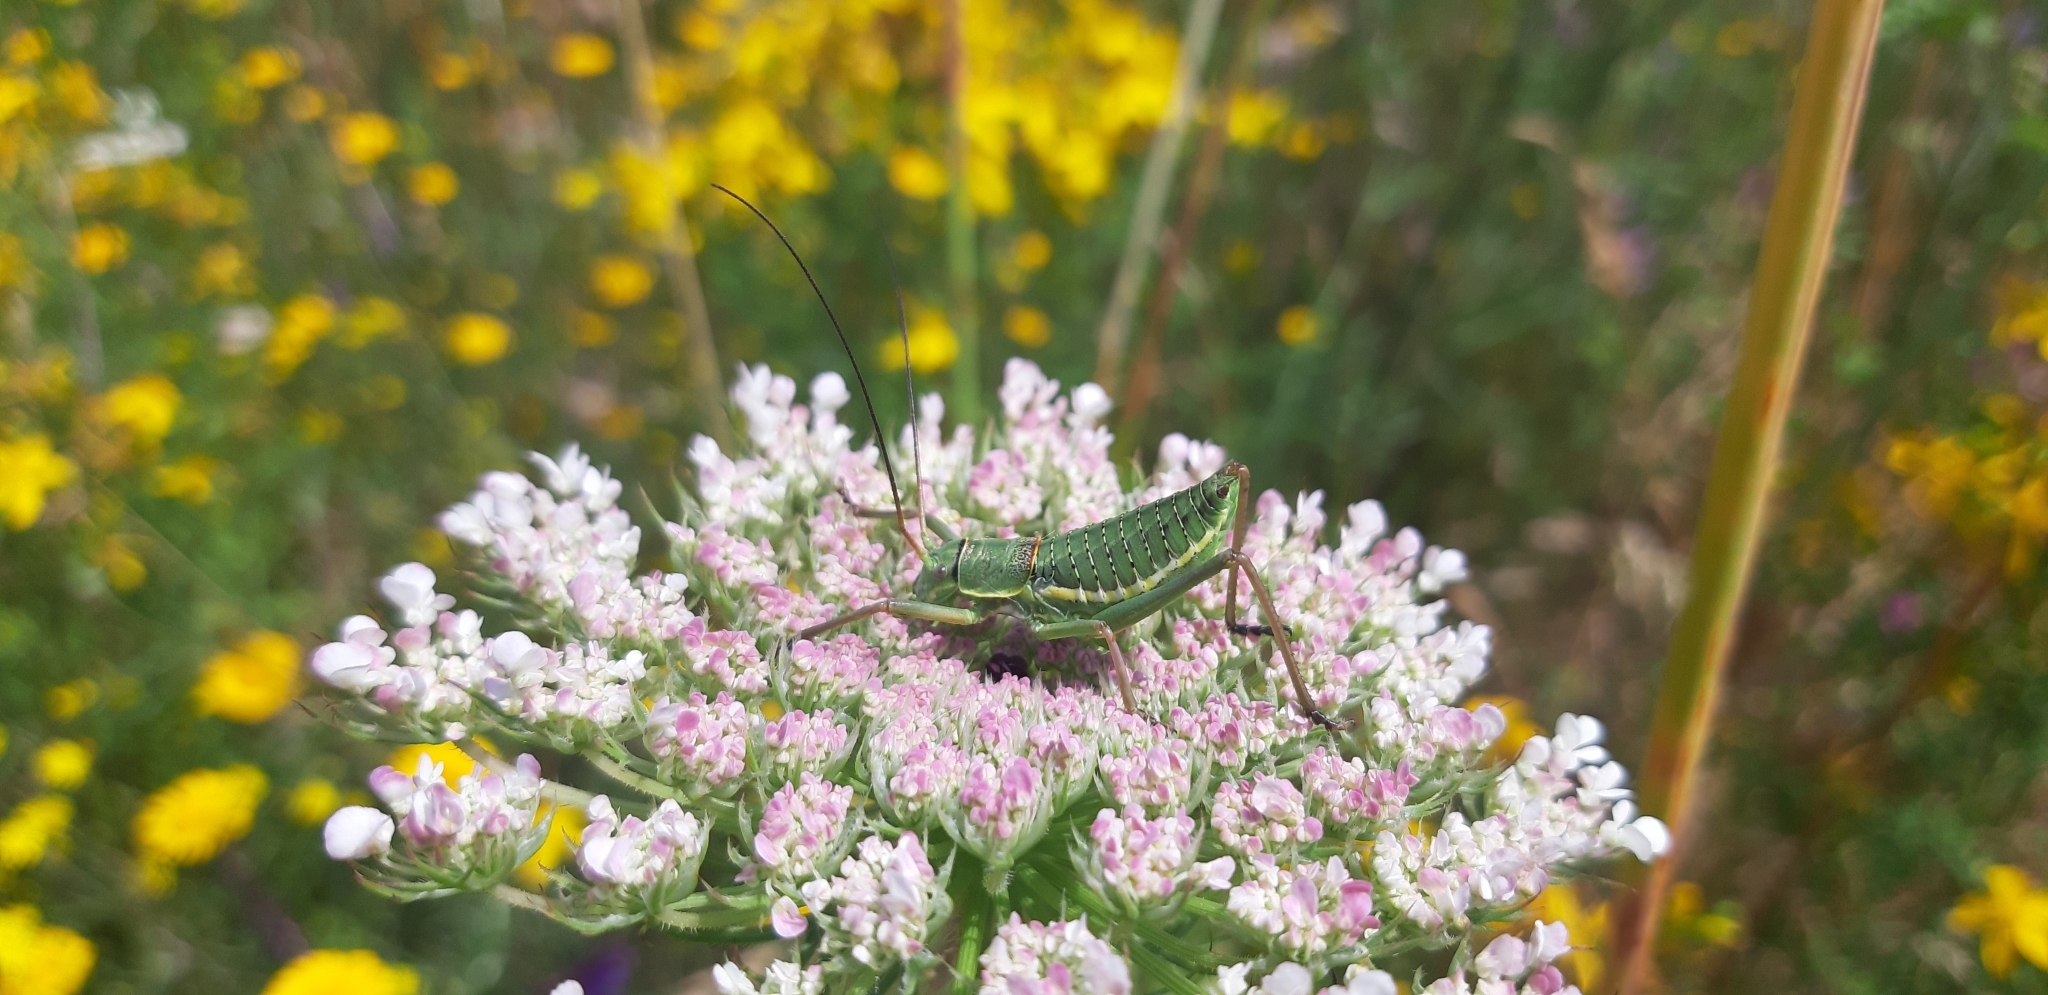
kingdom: Animalia
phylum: Arthropoda
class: Insecta
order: Orthoptera
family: Tettigoniidae
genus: Uromenus
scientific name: Uromenus elegans
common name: Elegant saddle bush-cricket
